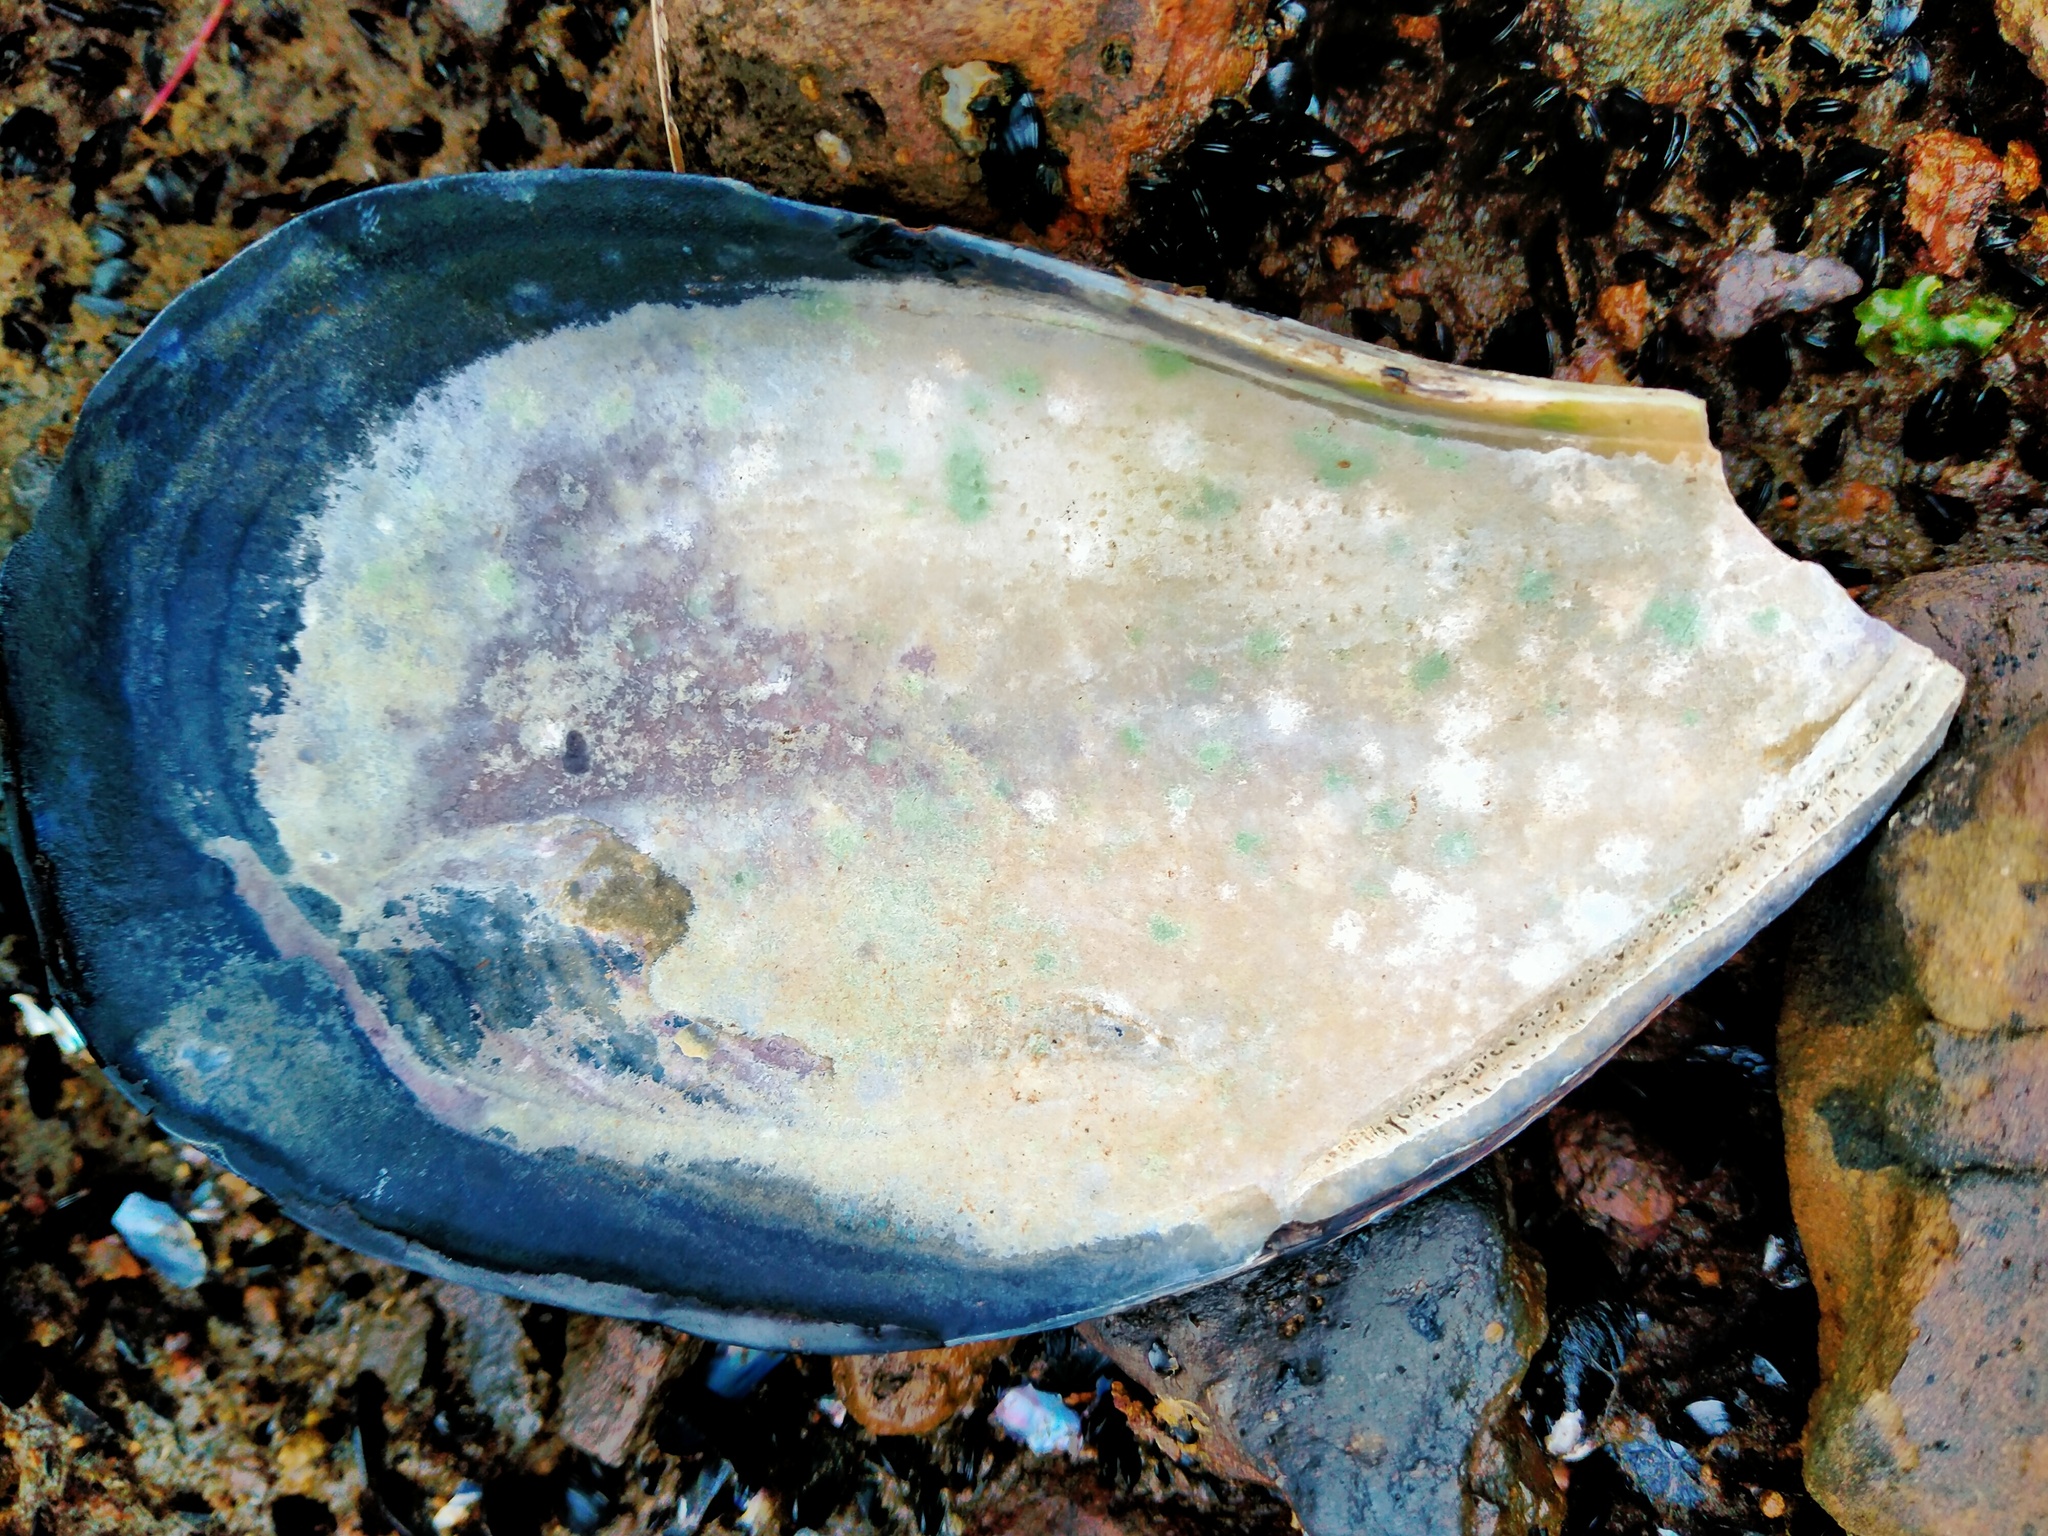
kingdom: Animalia
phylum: Mollusca
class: Bivalvia
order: Mytilida
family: Mytilidae
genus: Mytilus
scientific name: Mytilus planulatus
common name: Australian mussel
